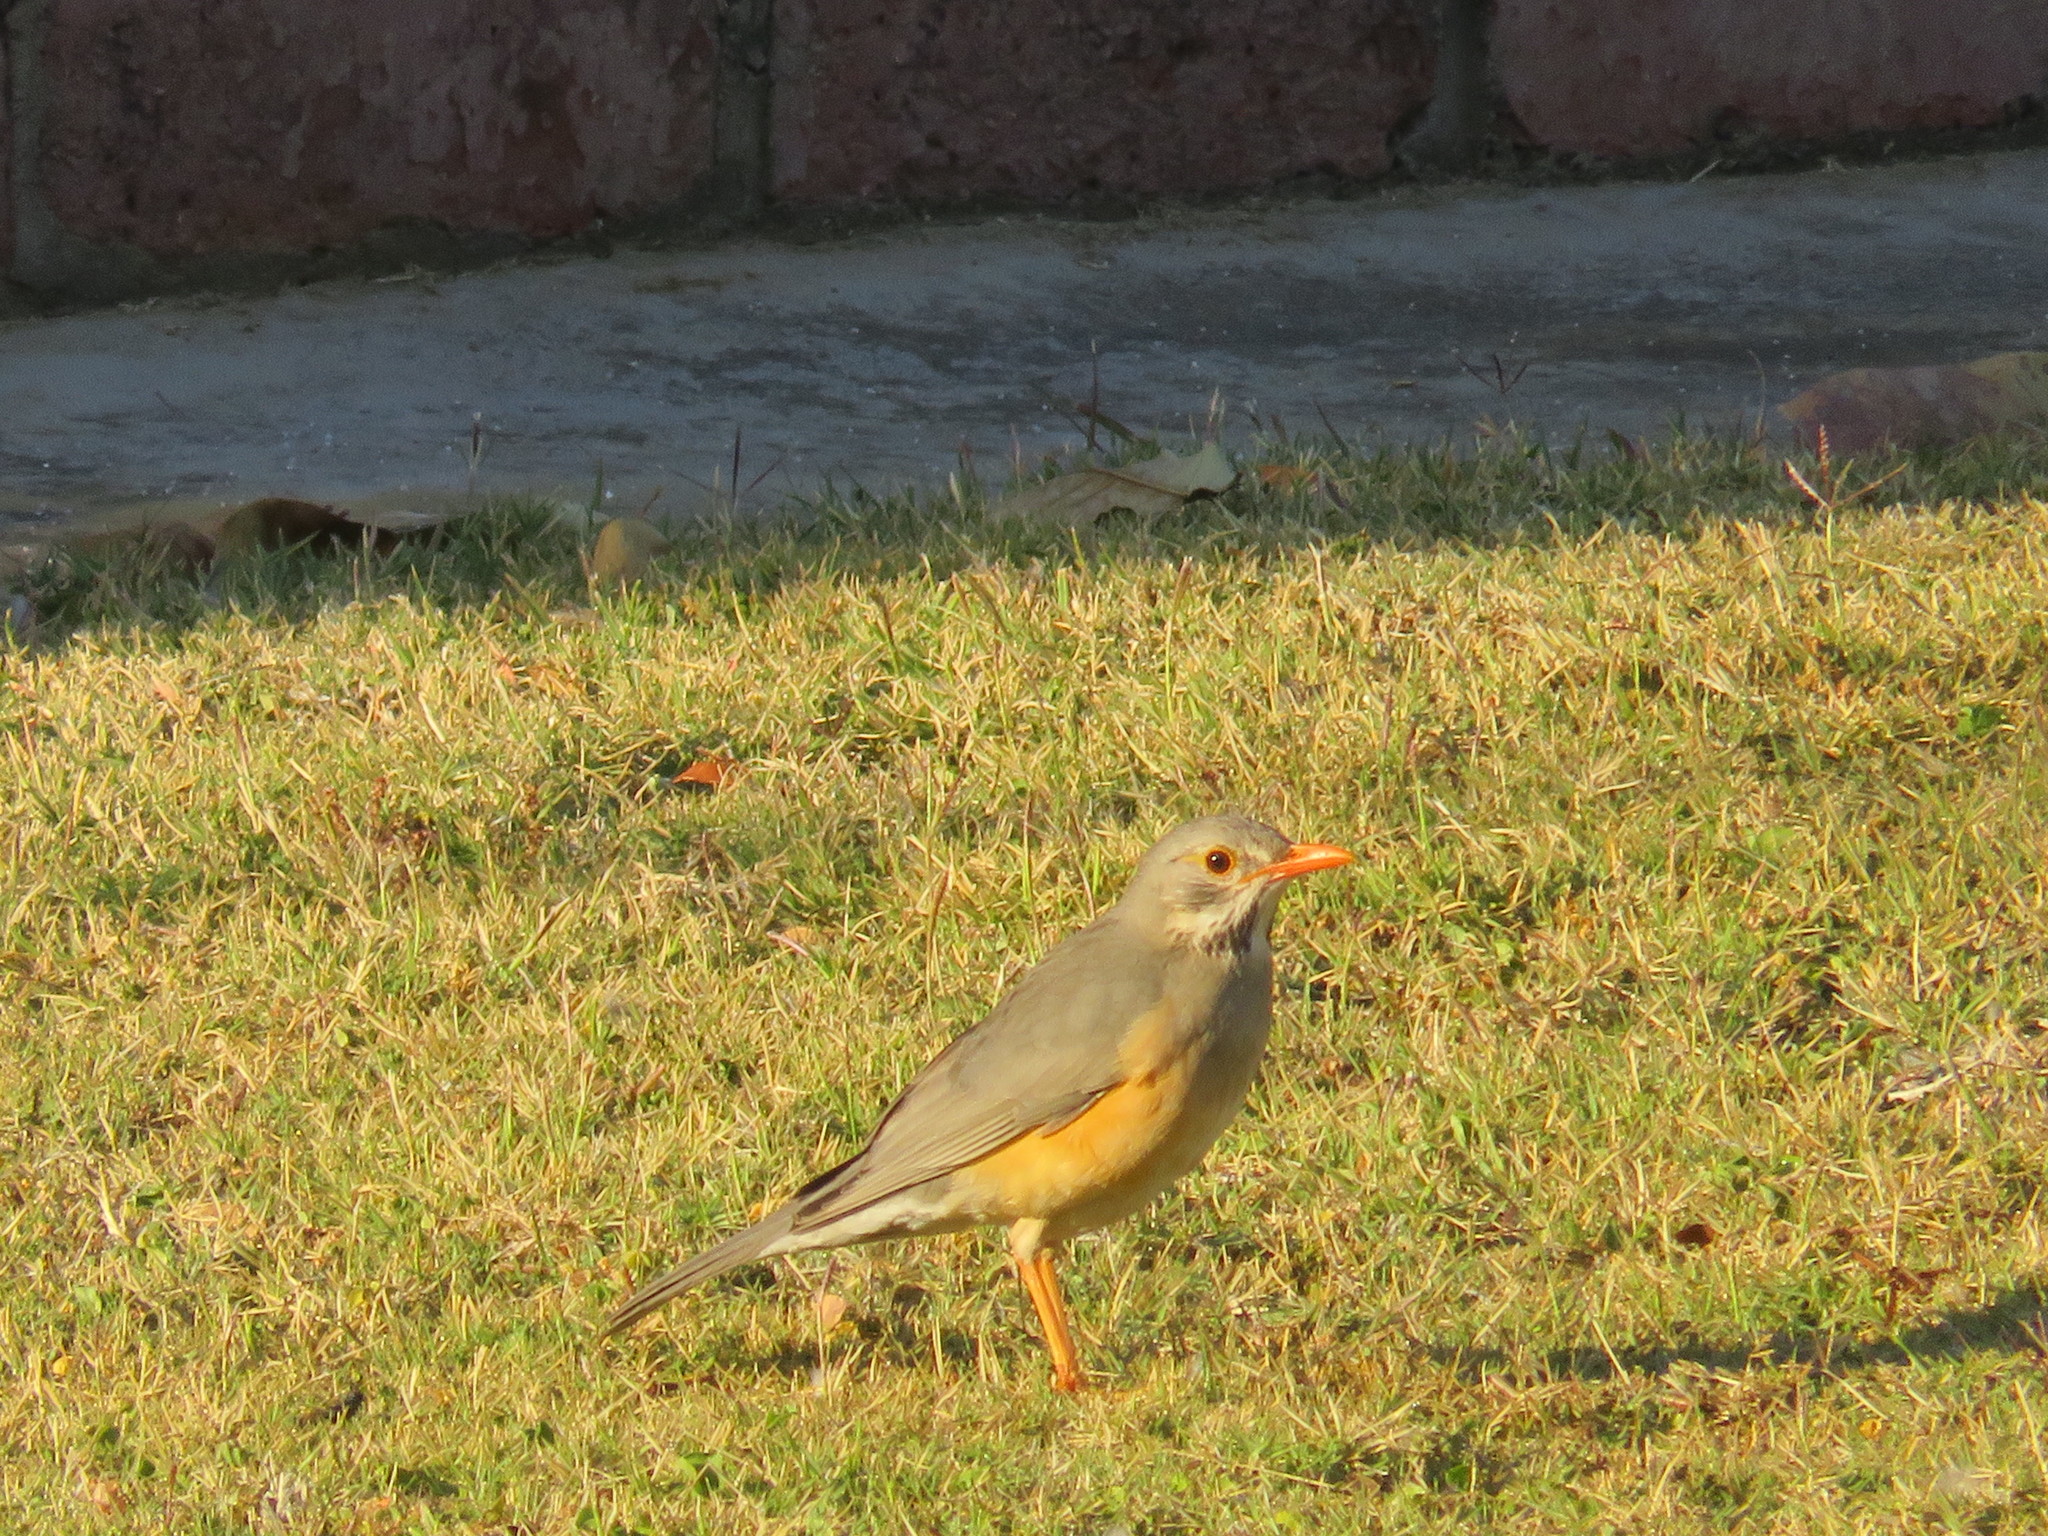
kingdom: Animalia
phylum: Chordata
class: Aves
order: Passeriformes
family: Turdidae
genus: Turdus
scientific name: Turdus libonyana
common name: Kurrichane thrush
